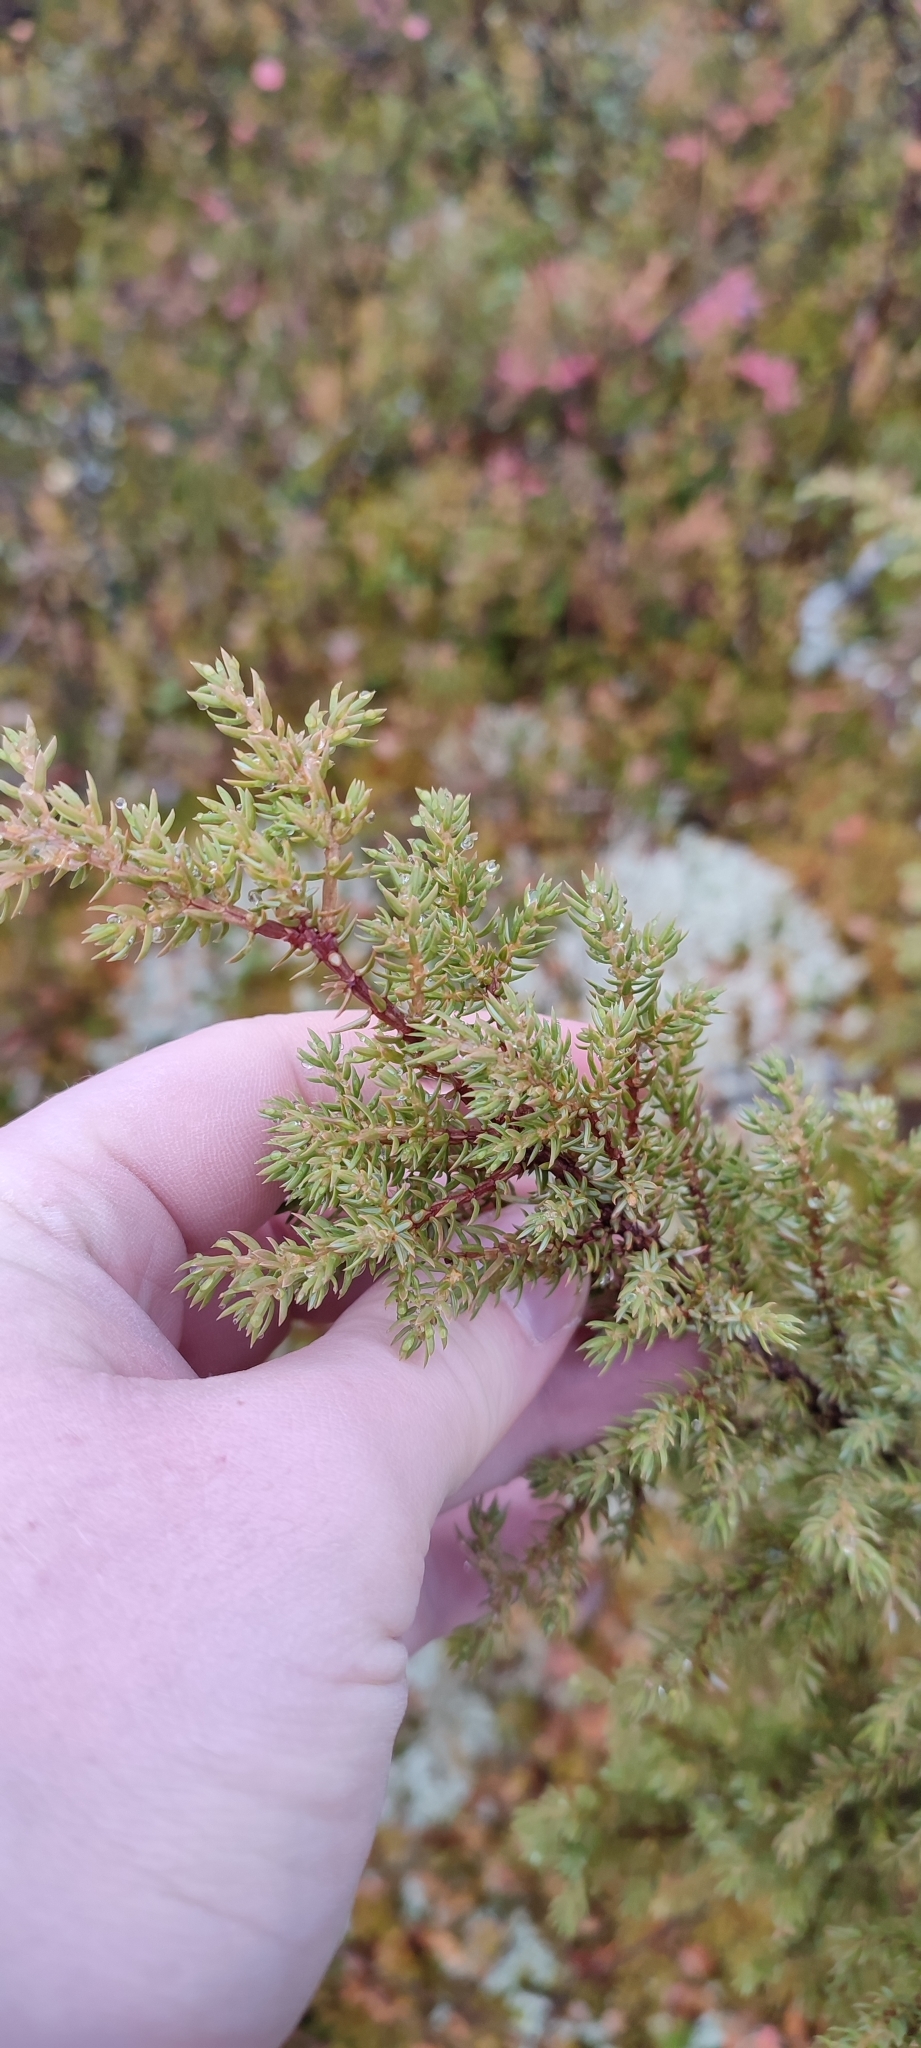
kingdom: Plantae
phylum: Tracheophyta
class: Pinopsida
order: Pinales
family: Cupressaceae
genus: Juniperus
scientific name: Juniperus communis
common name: Common juniper
